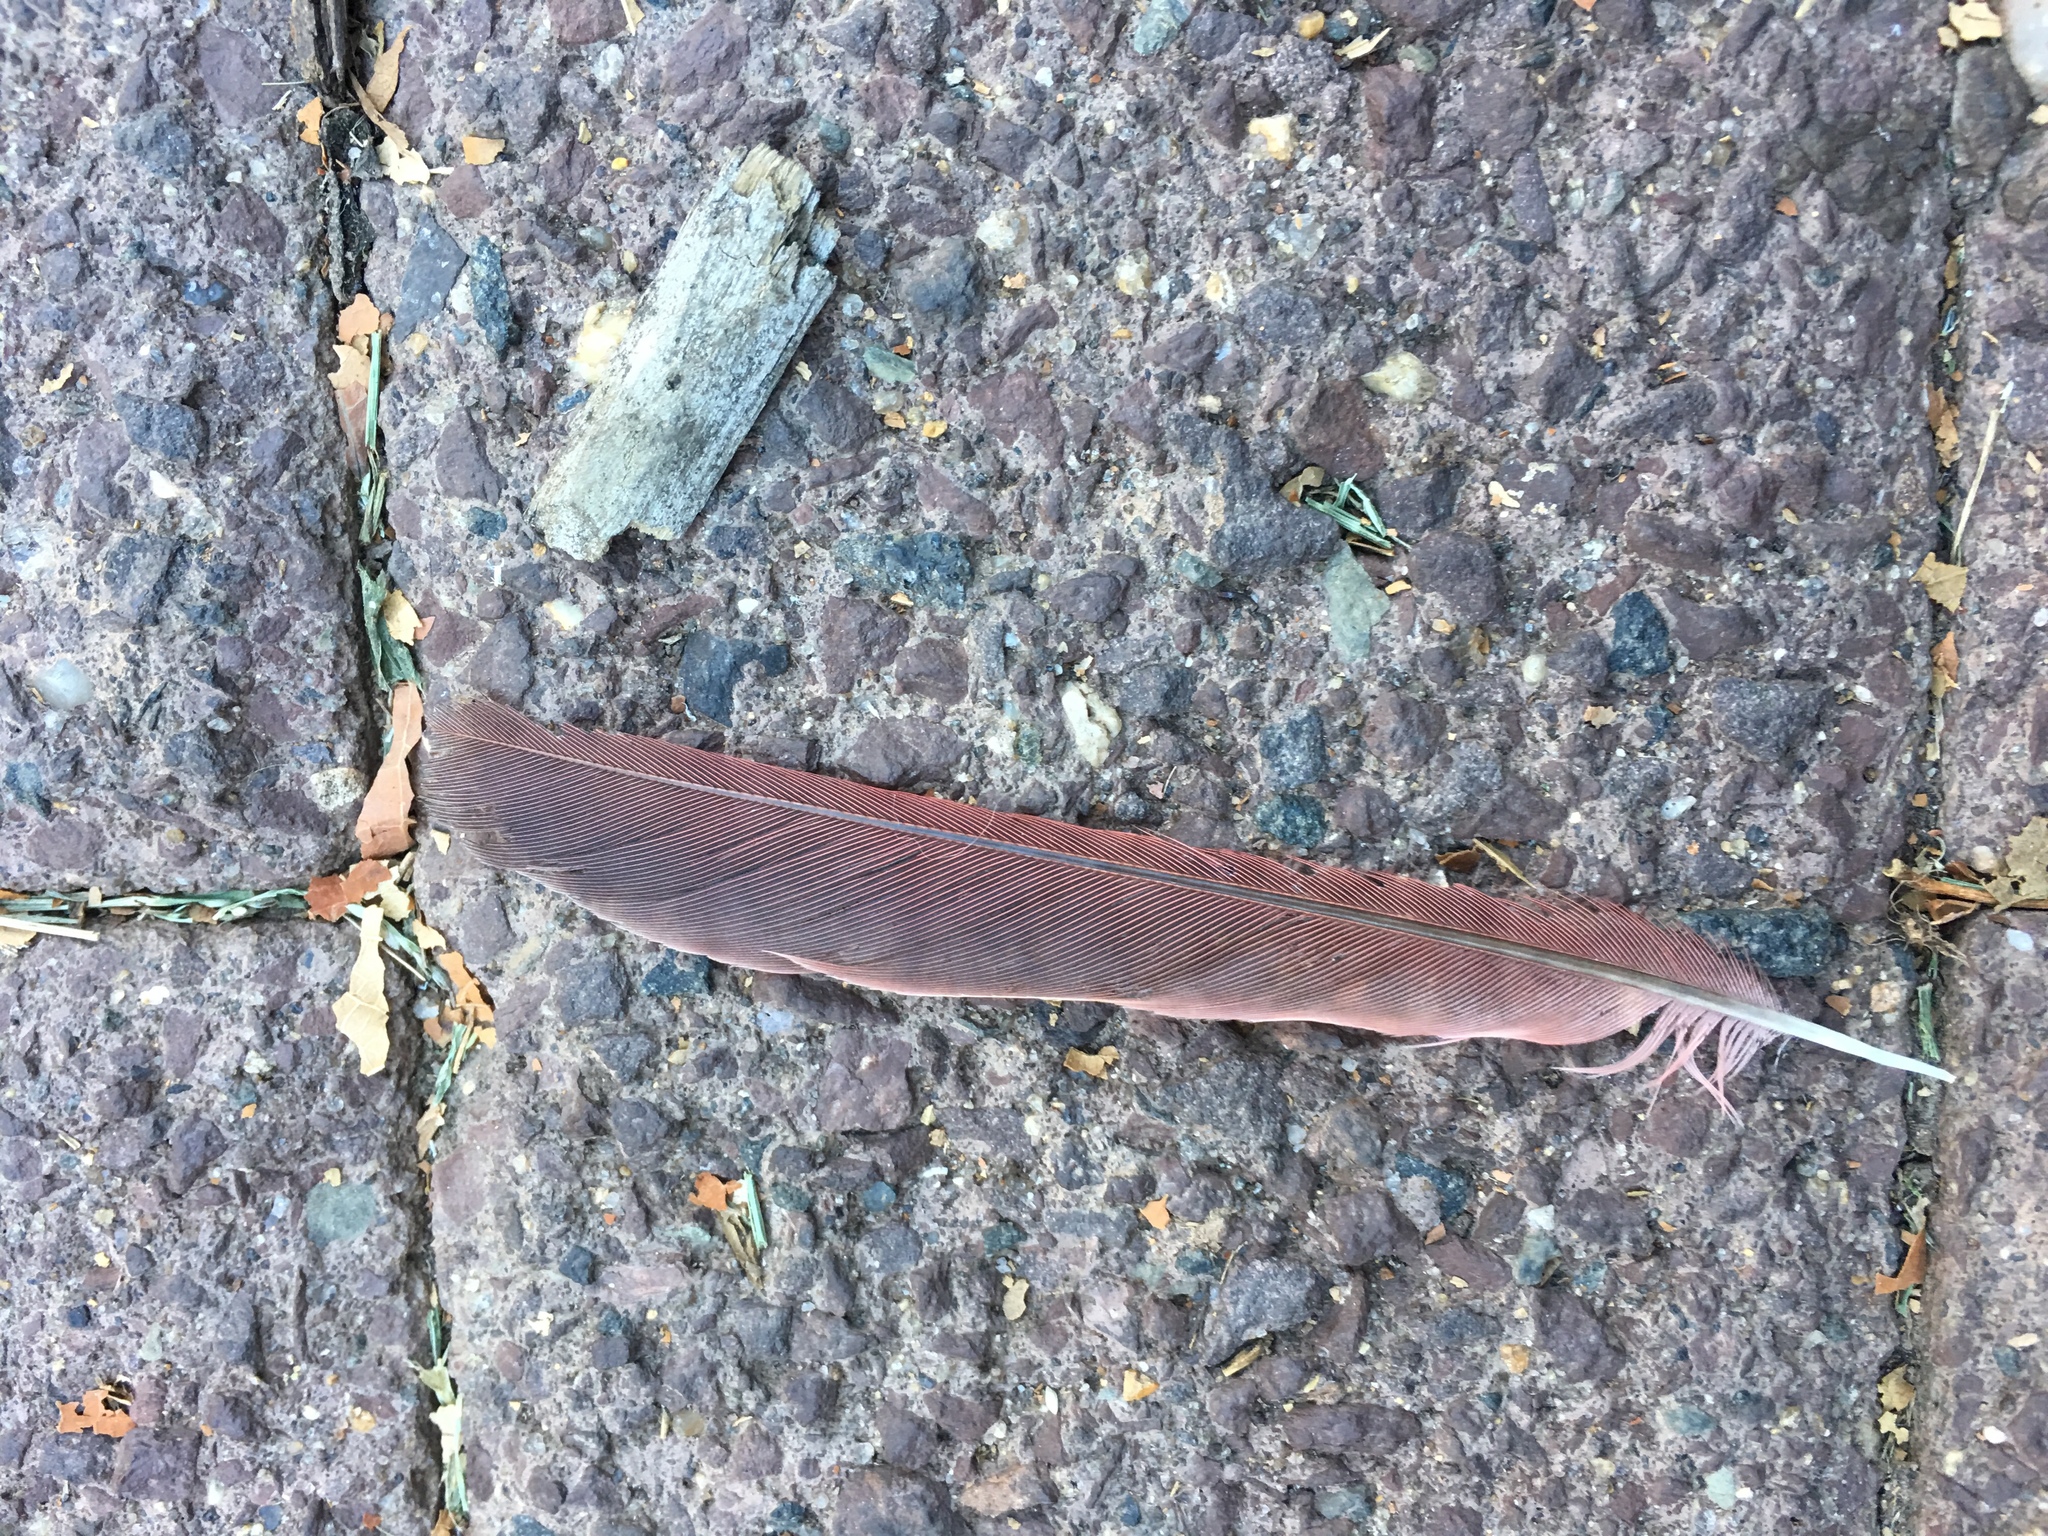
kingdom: Animalia
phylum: Chordata
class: Aves
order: Passeriformes
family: Cardinalidae
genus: Cardinalis
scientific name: Cardinalis cardinalis
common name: Northern cardinal
